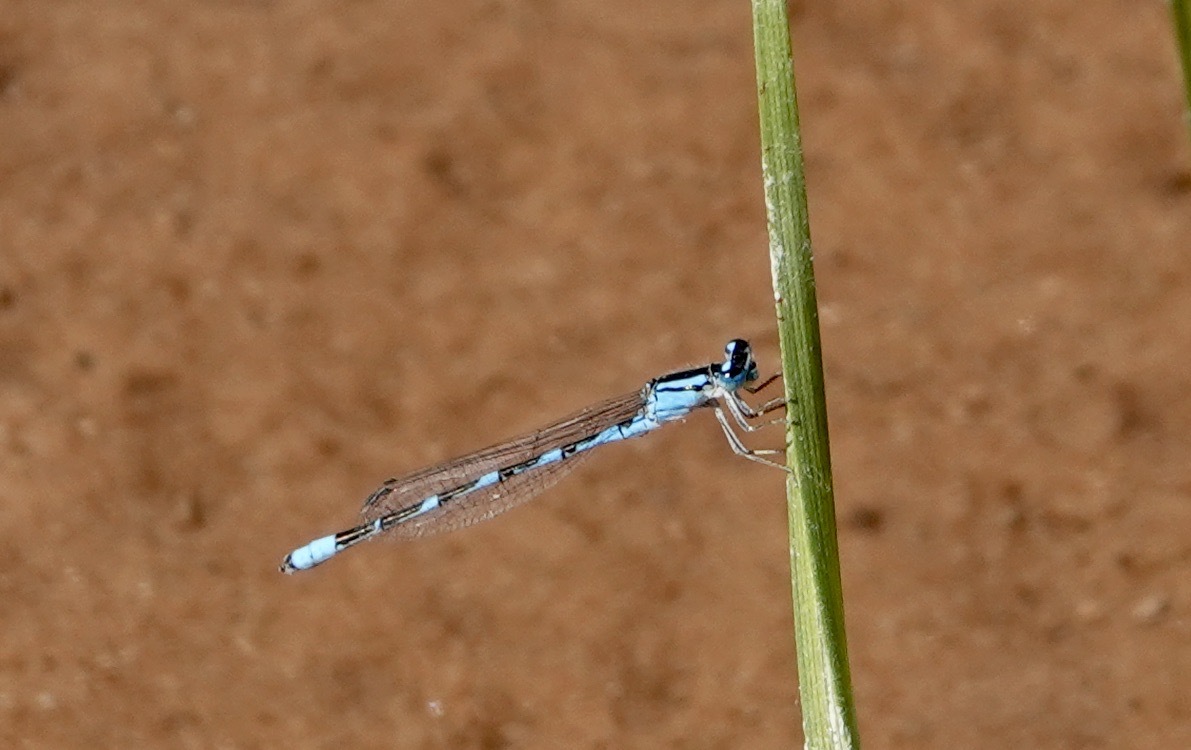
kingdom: Animalia
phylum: Arthropoda
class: Insecta
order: Odonata
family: Coenagrionidae
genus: Enallagma
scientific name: Enallagma carunculatum
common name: Tule bluet
